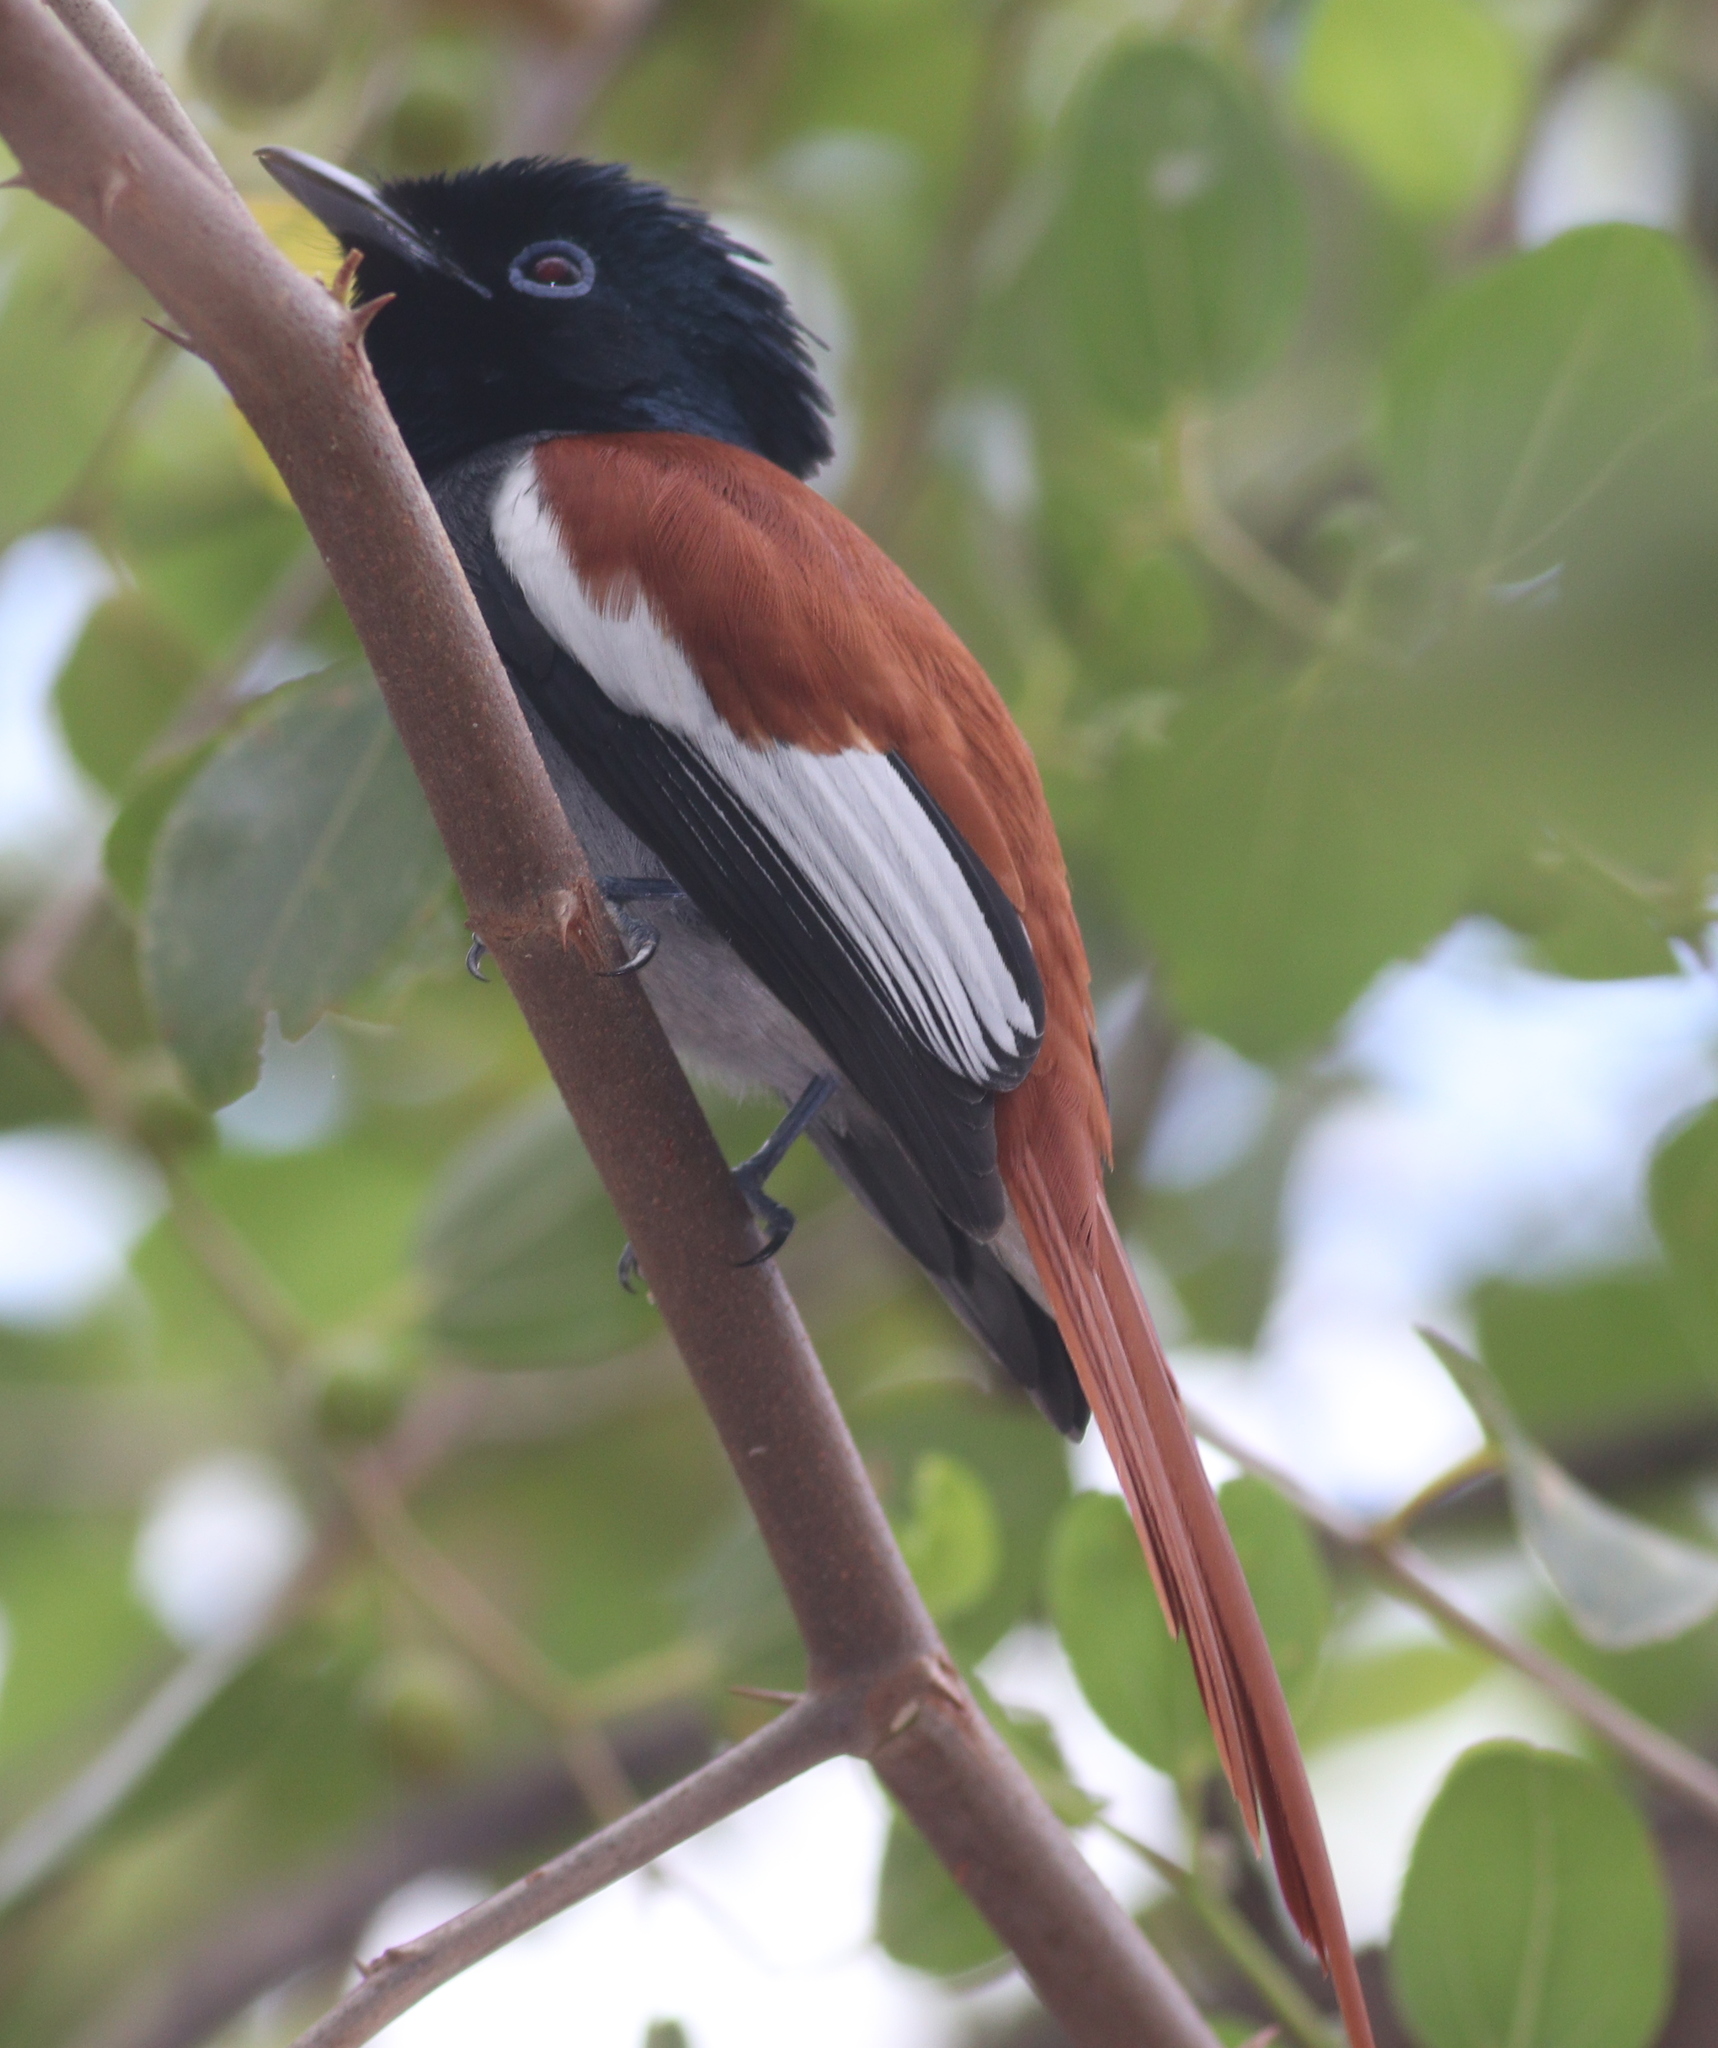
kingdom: Animalia
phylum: Chordata
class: Aves
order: Passeriformes
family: Monarchidae
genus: Terpsiphone
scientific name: Terpsiphone viridis
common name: African paradise flycatcher
